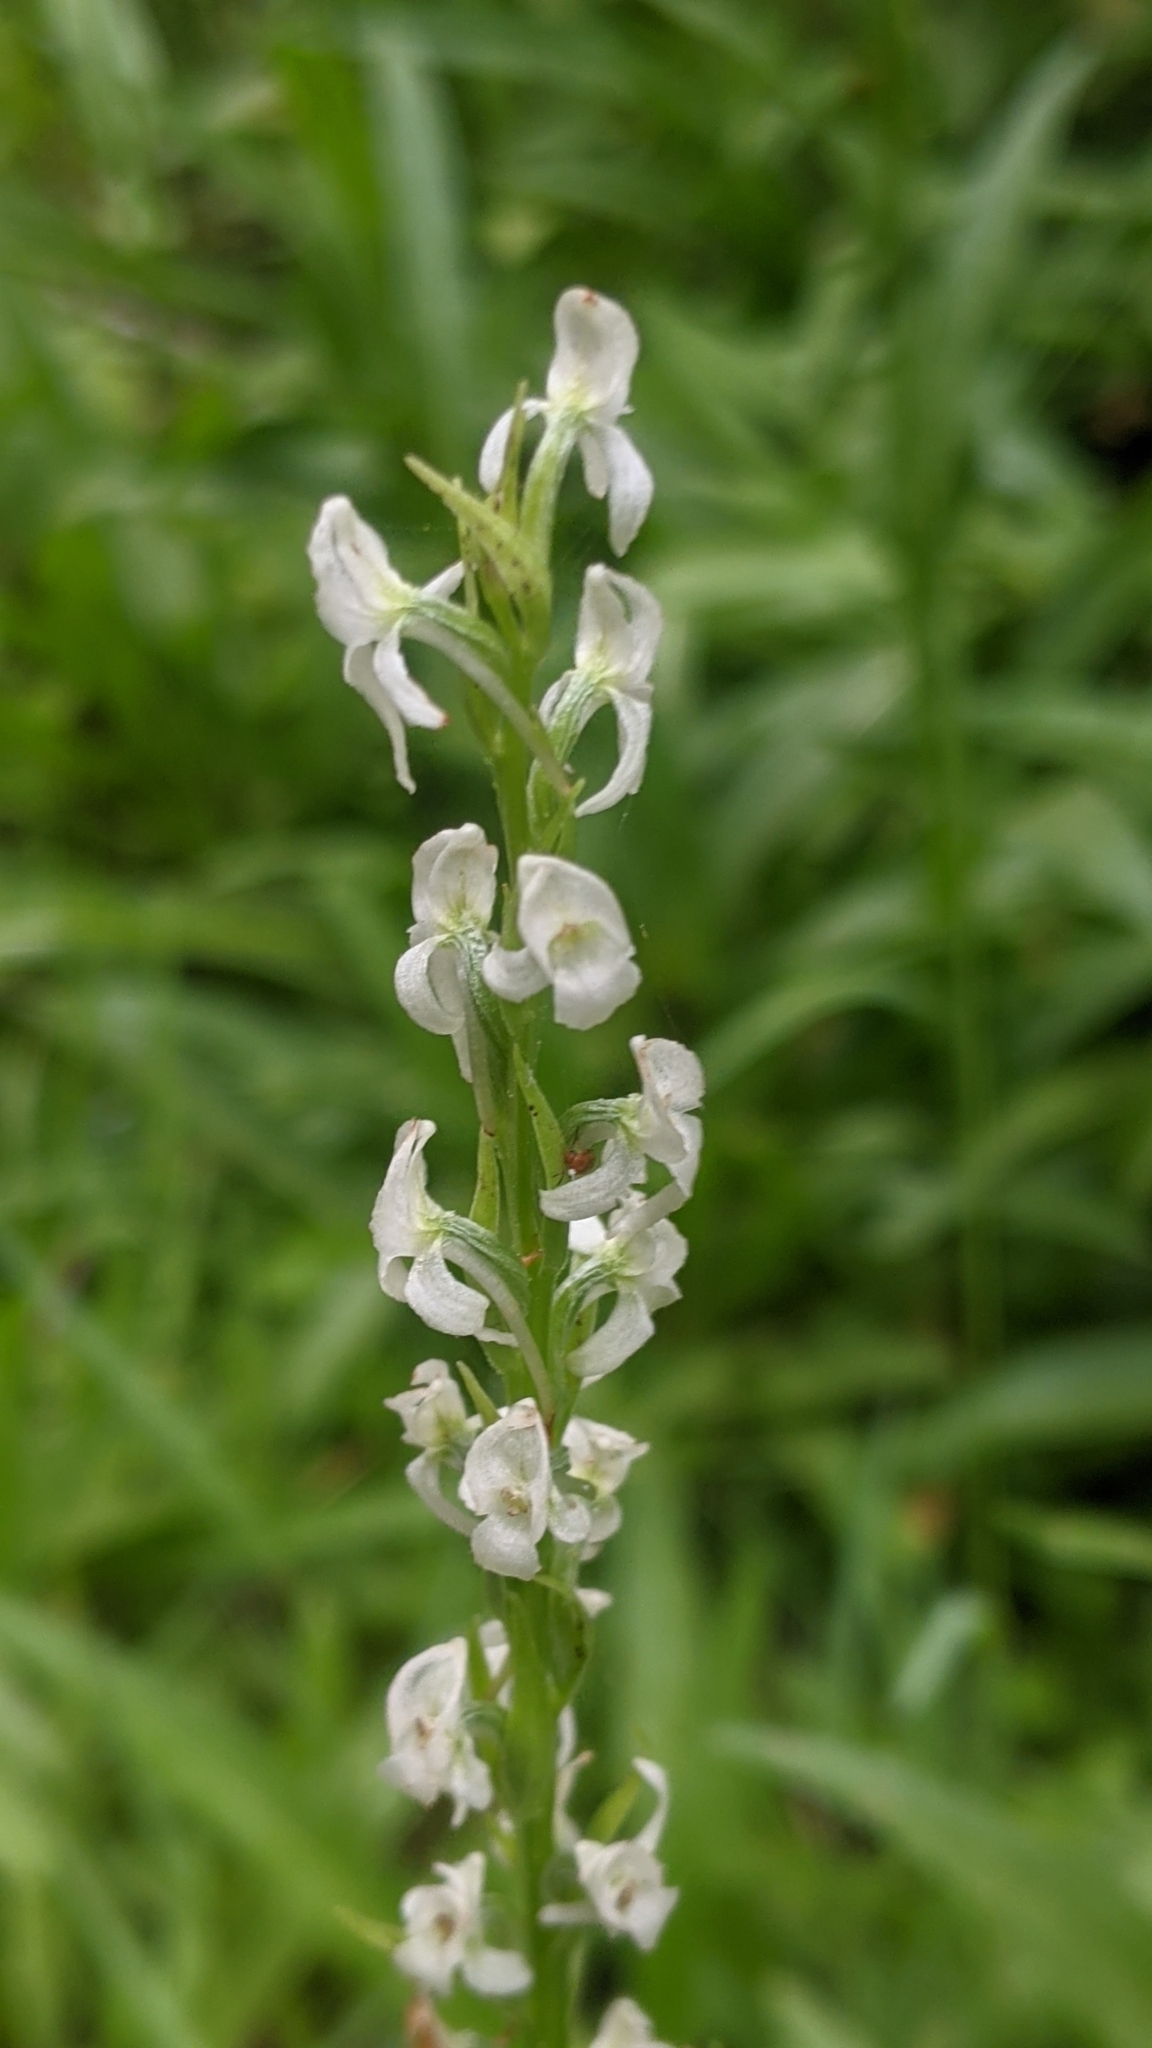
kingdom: Plantae
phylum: Tracheophyta
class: Liliopsida
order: Asparagales
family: Orchidaceae
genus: Platanthera
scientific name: Platanthera dilatata
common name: Bog candles
